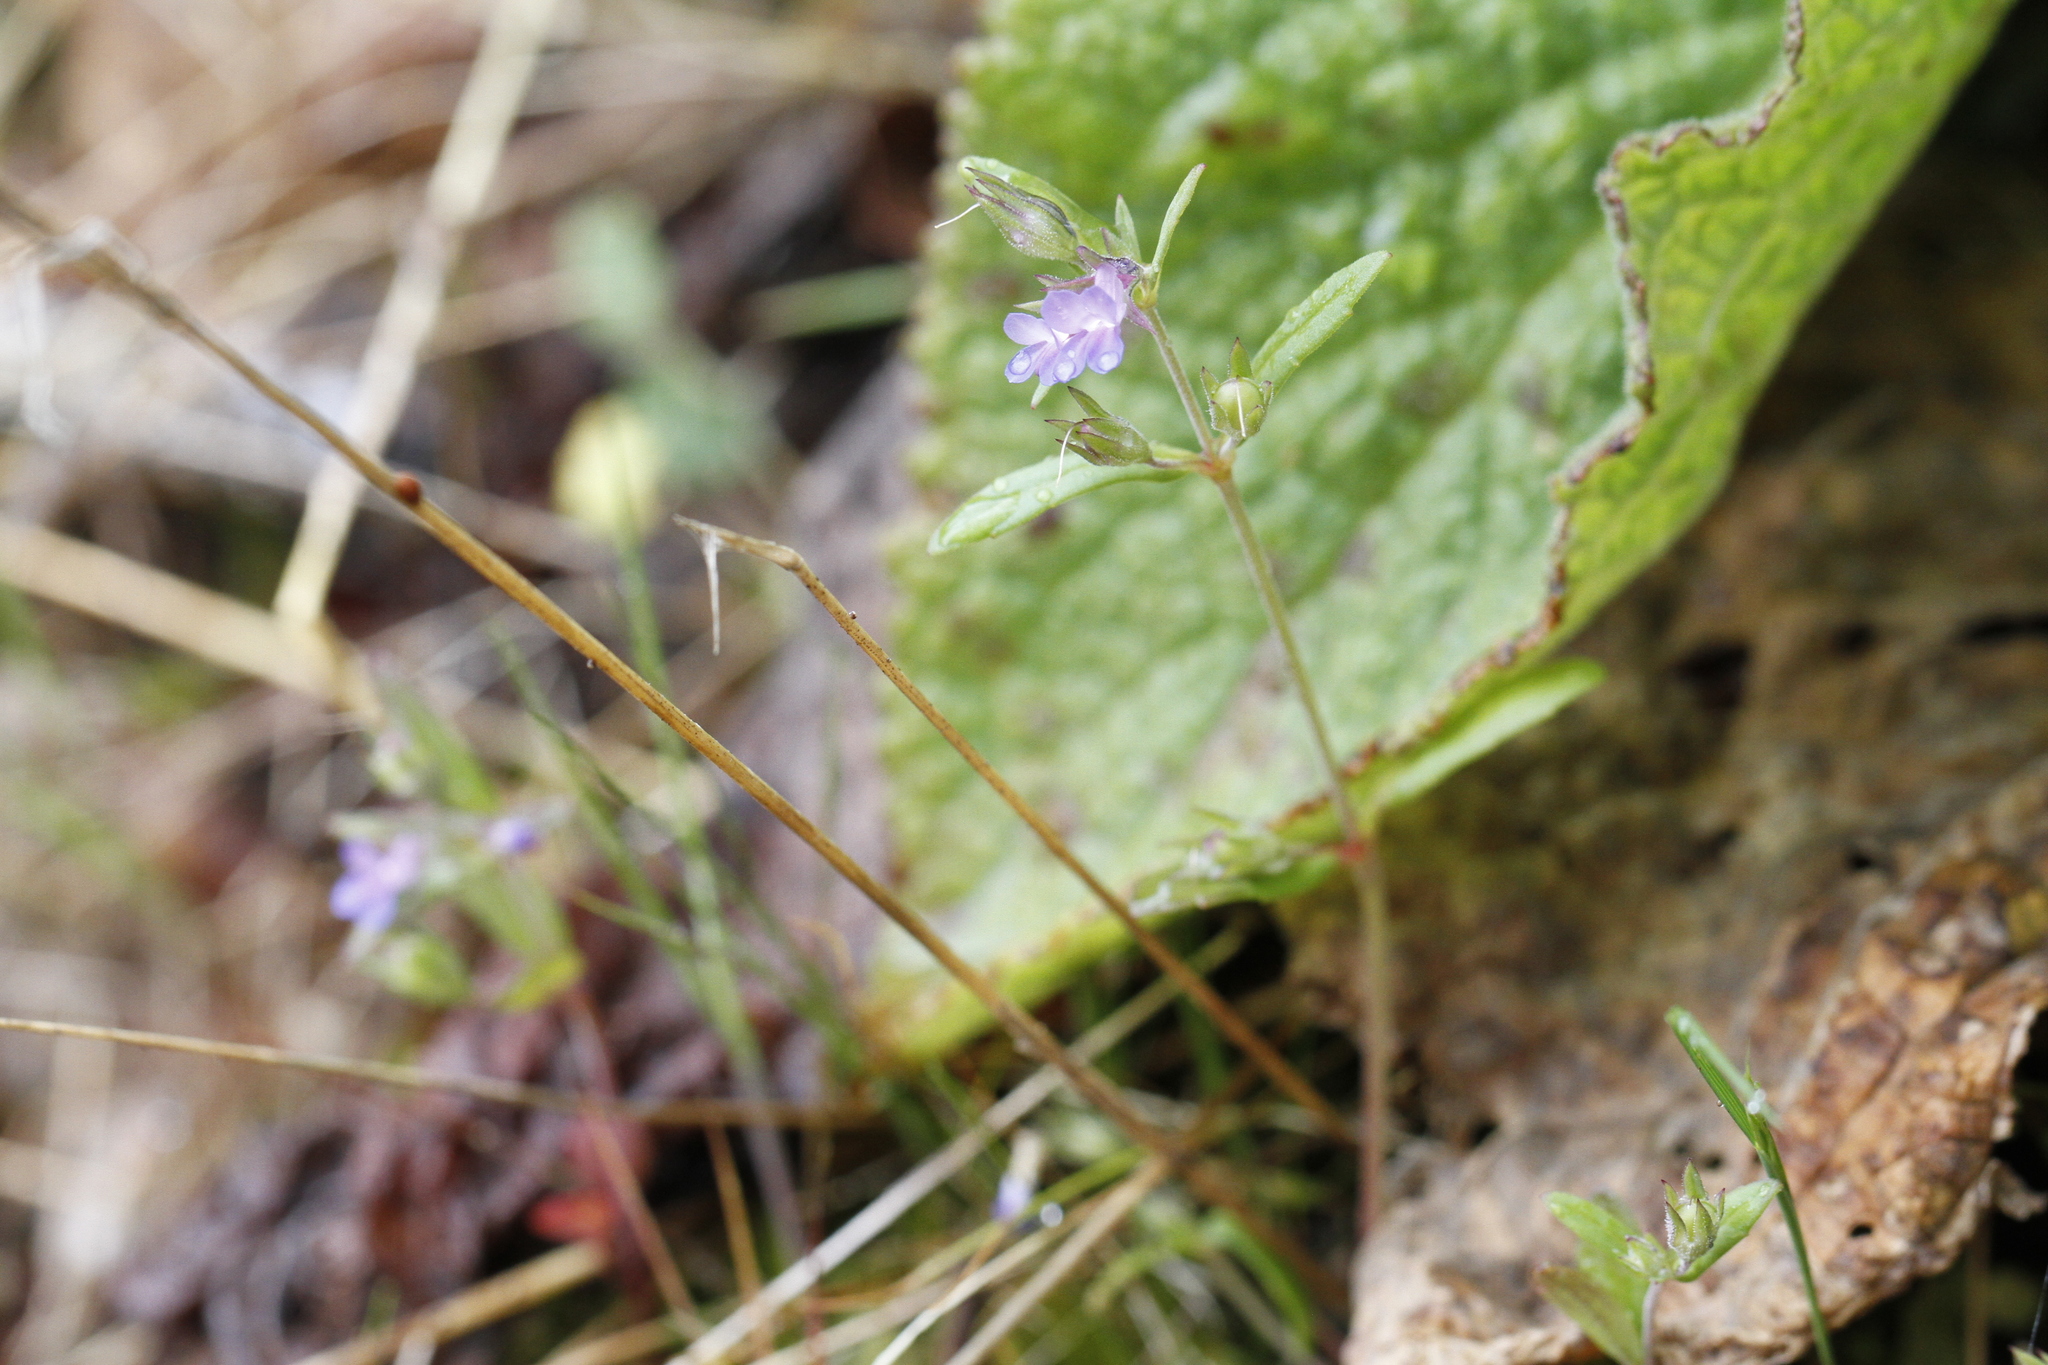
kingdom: Plantae
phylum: Tracheophyta
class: Magnoliopsida
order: Lamiales
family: Plantaginaceae
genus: Collinsia
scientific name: Collinsia parviflora
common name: Blue-lips
